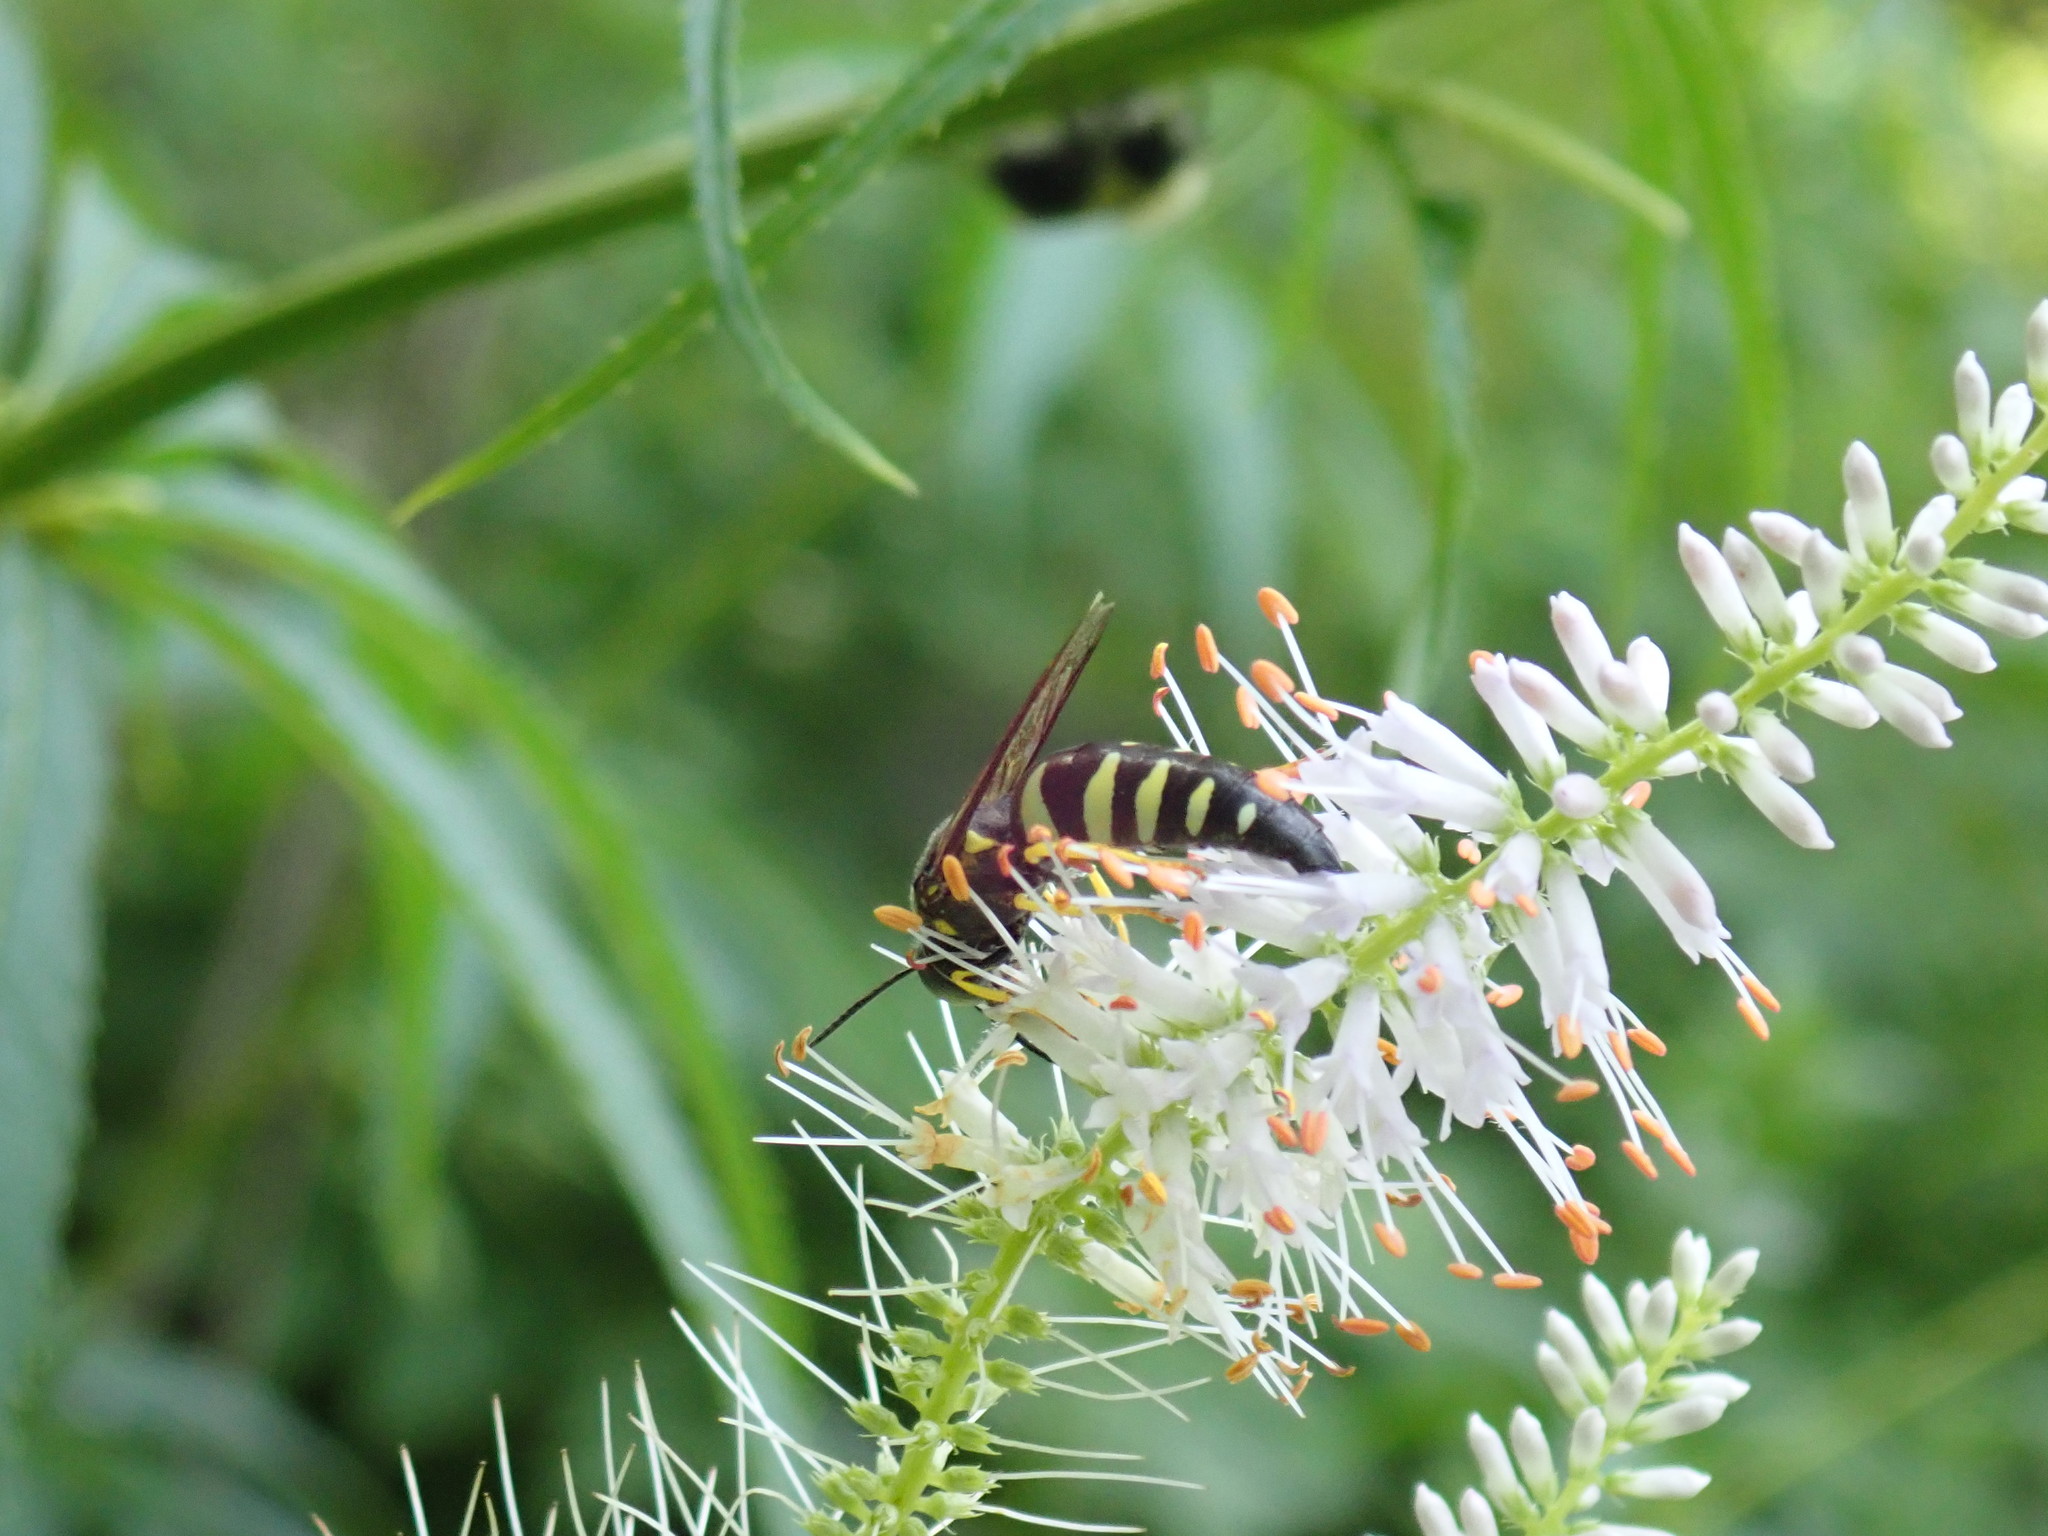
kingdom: Animalia
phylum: Arthropoda
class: Insecta
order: Hymenoptera
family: Crabronidae
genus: Bicyrtes
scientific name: Bicyrtes quadrifasciatus
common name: Four-banded stink bug hunter wasp
